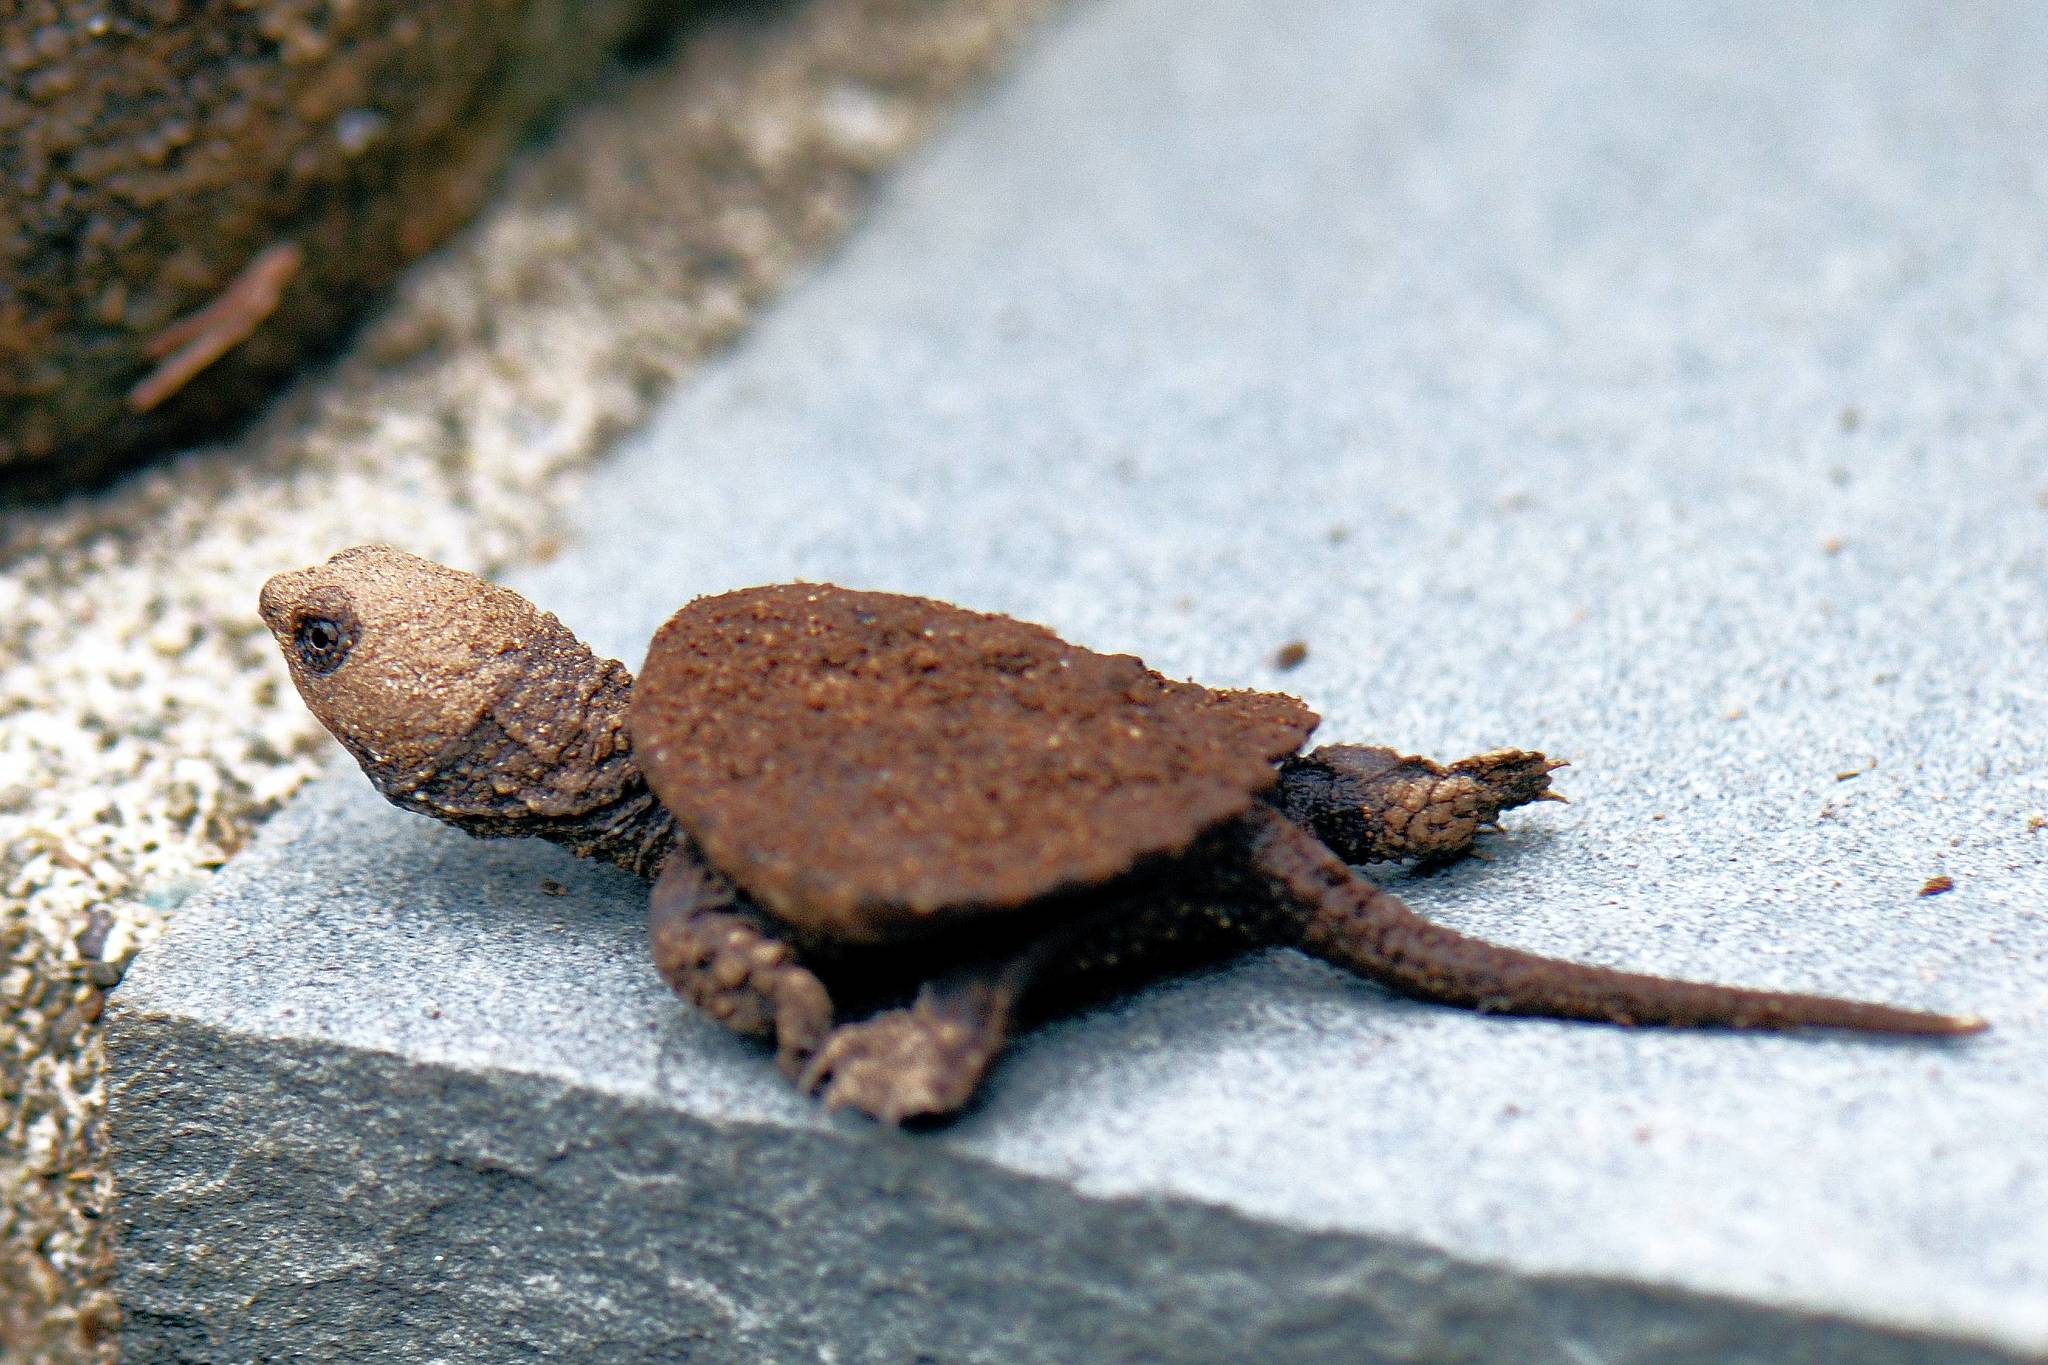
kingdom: Animalia
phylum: Chordata
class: Testudines
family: Chelydridae
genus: Chelydra
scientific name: Chelydra serpentina
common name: Common snapping turtle
